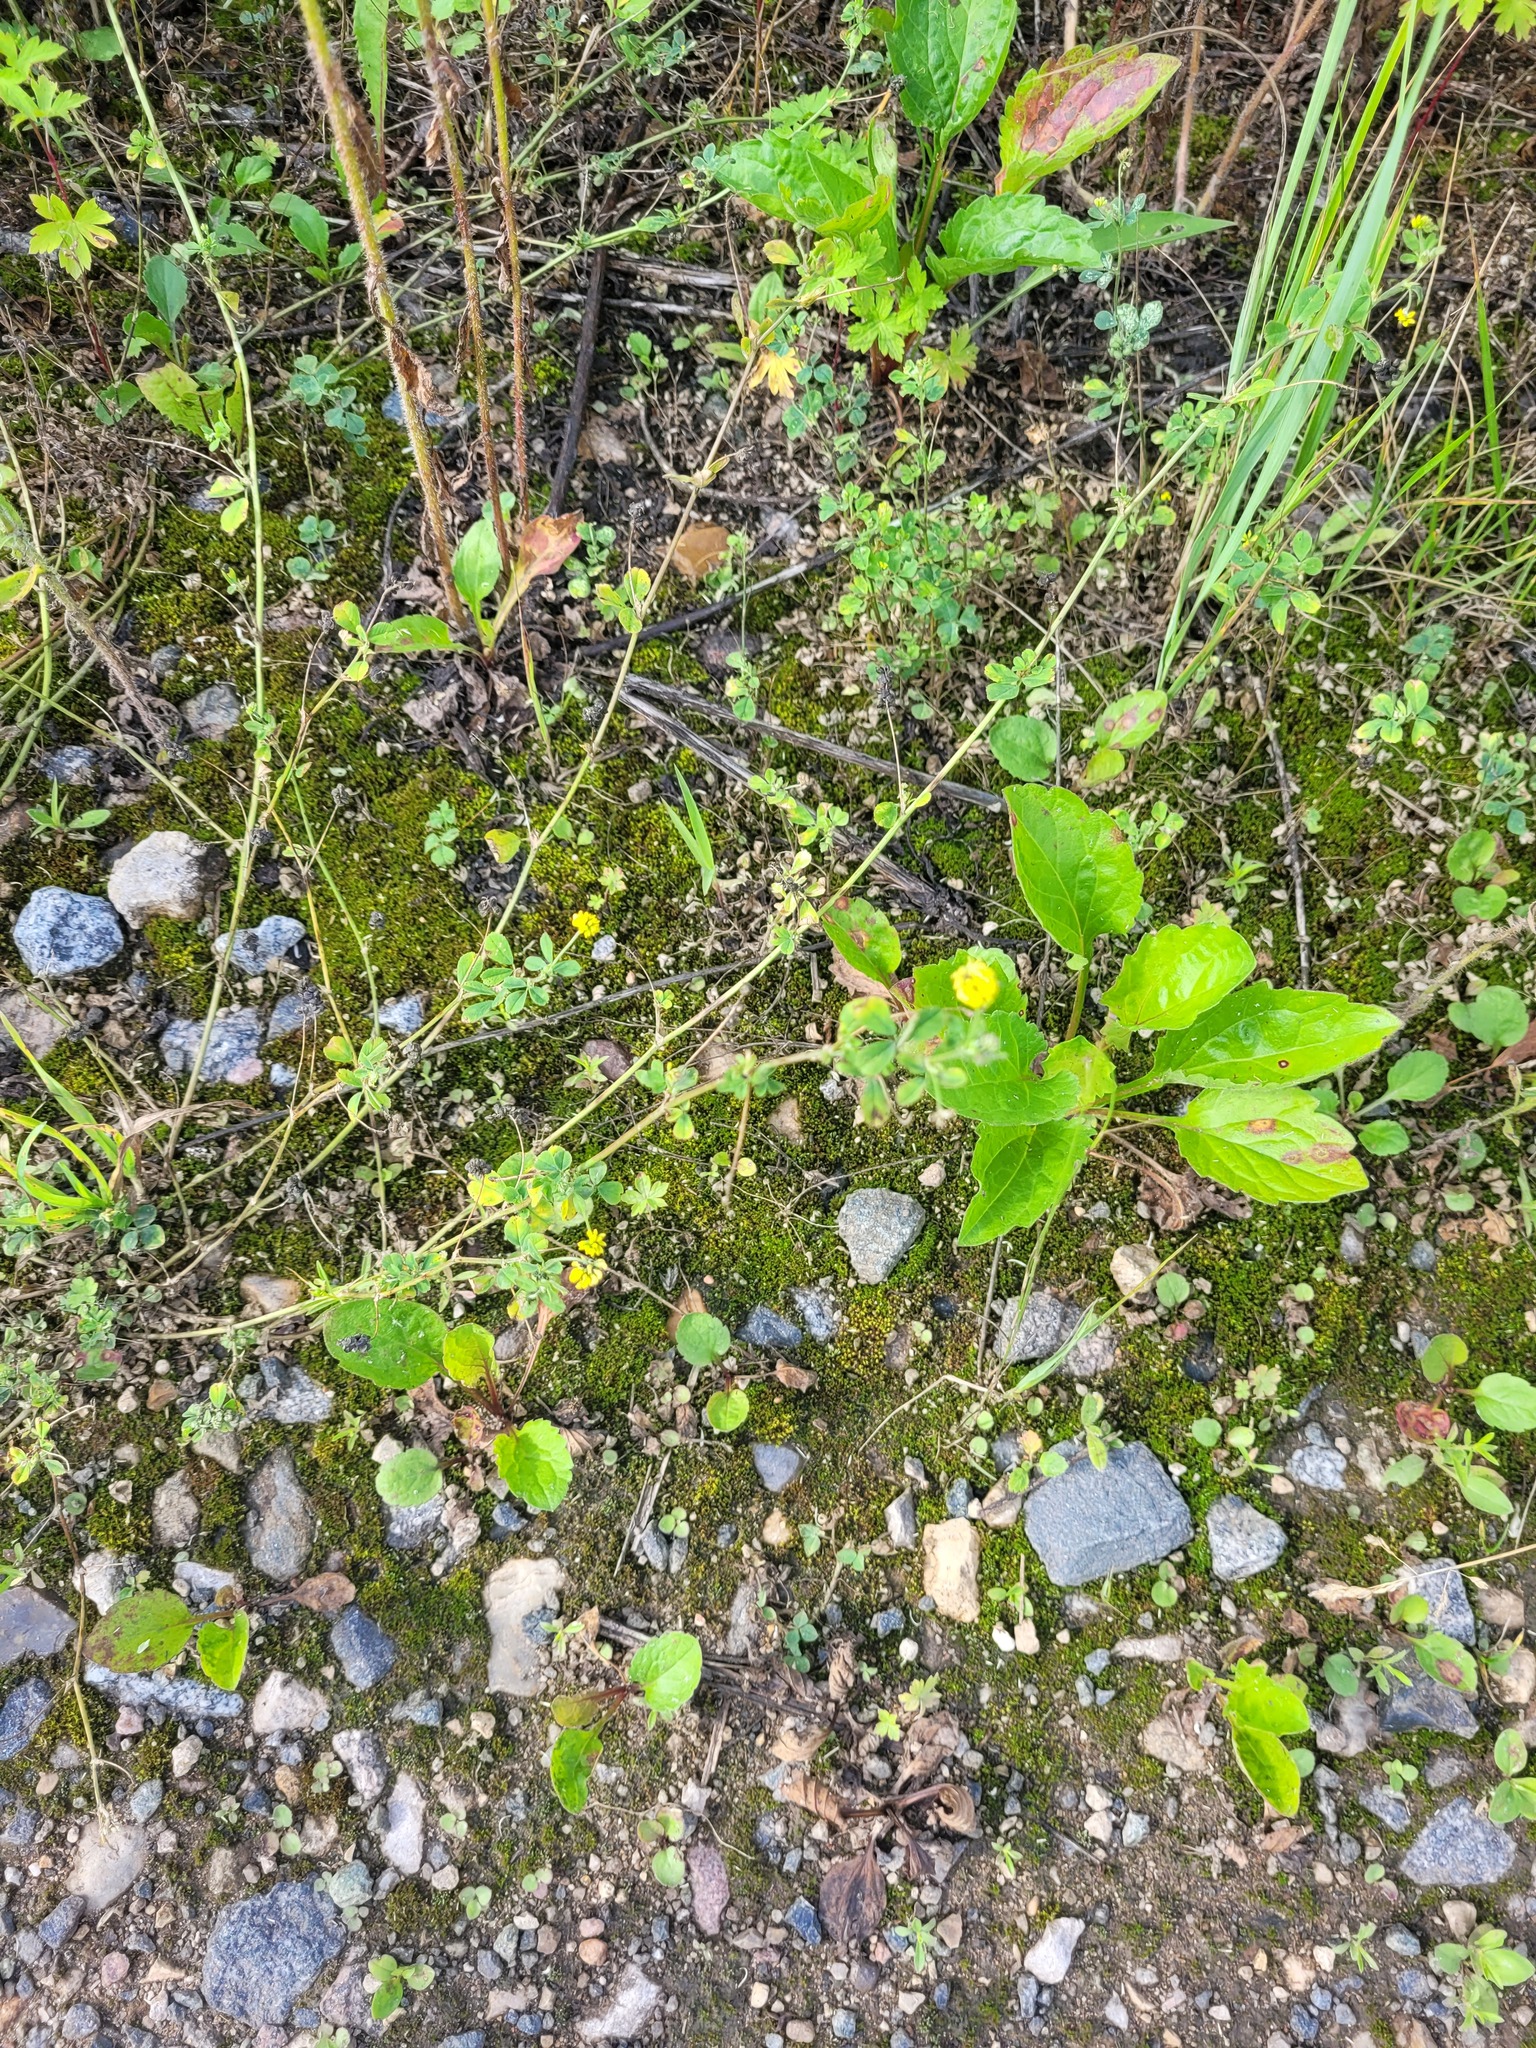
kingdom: Plantae
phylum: Tracheophyta
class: Magnoliopsida
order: Fabales
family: Fabaceae
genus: Medicago
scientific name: Medicago lupulina
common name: Black medick
